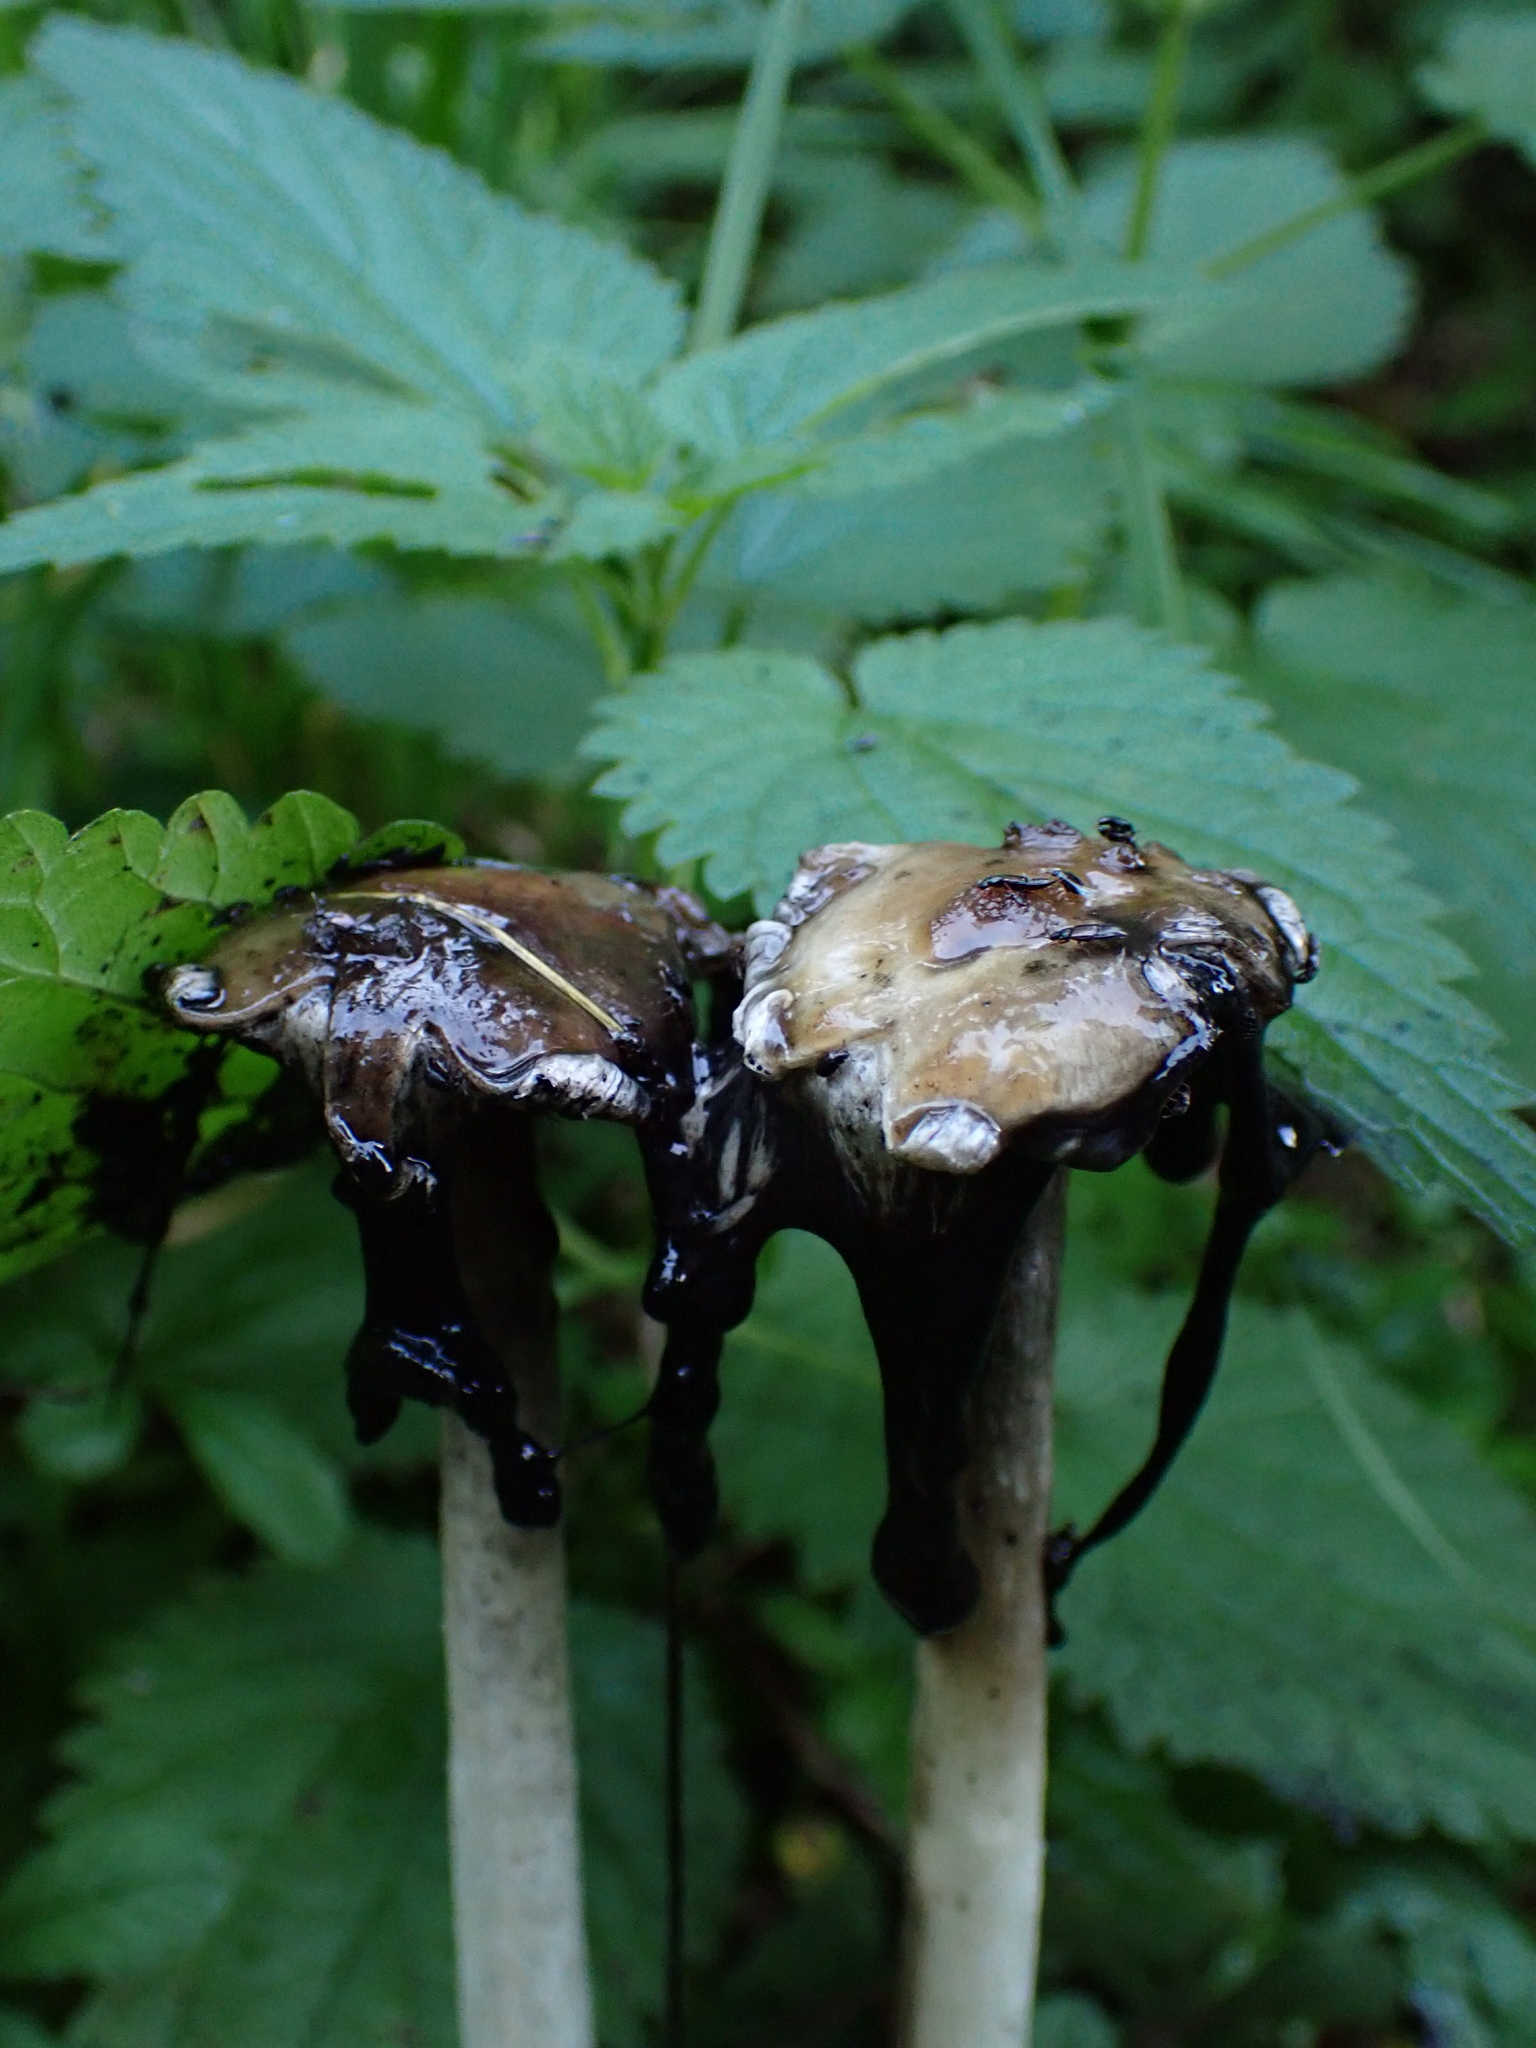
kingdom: Fungi
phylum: Basidiomycota
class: Agaricomycetes
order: Agaricales
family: Agaricaceae
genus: Coprinus
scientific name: Coprinus comatus
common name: Lawyer's wig
